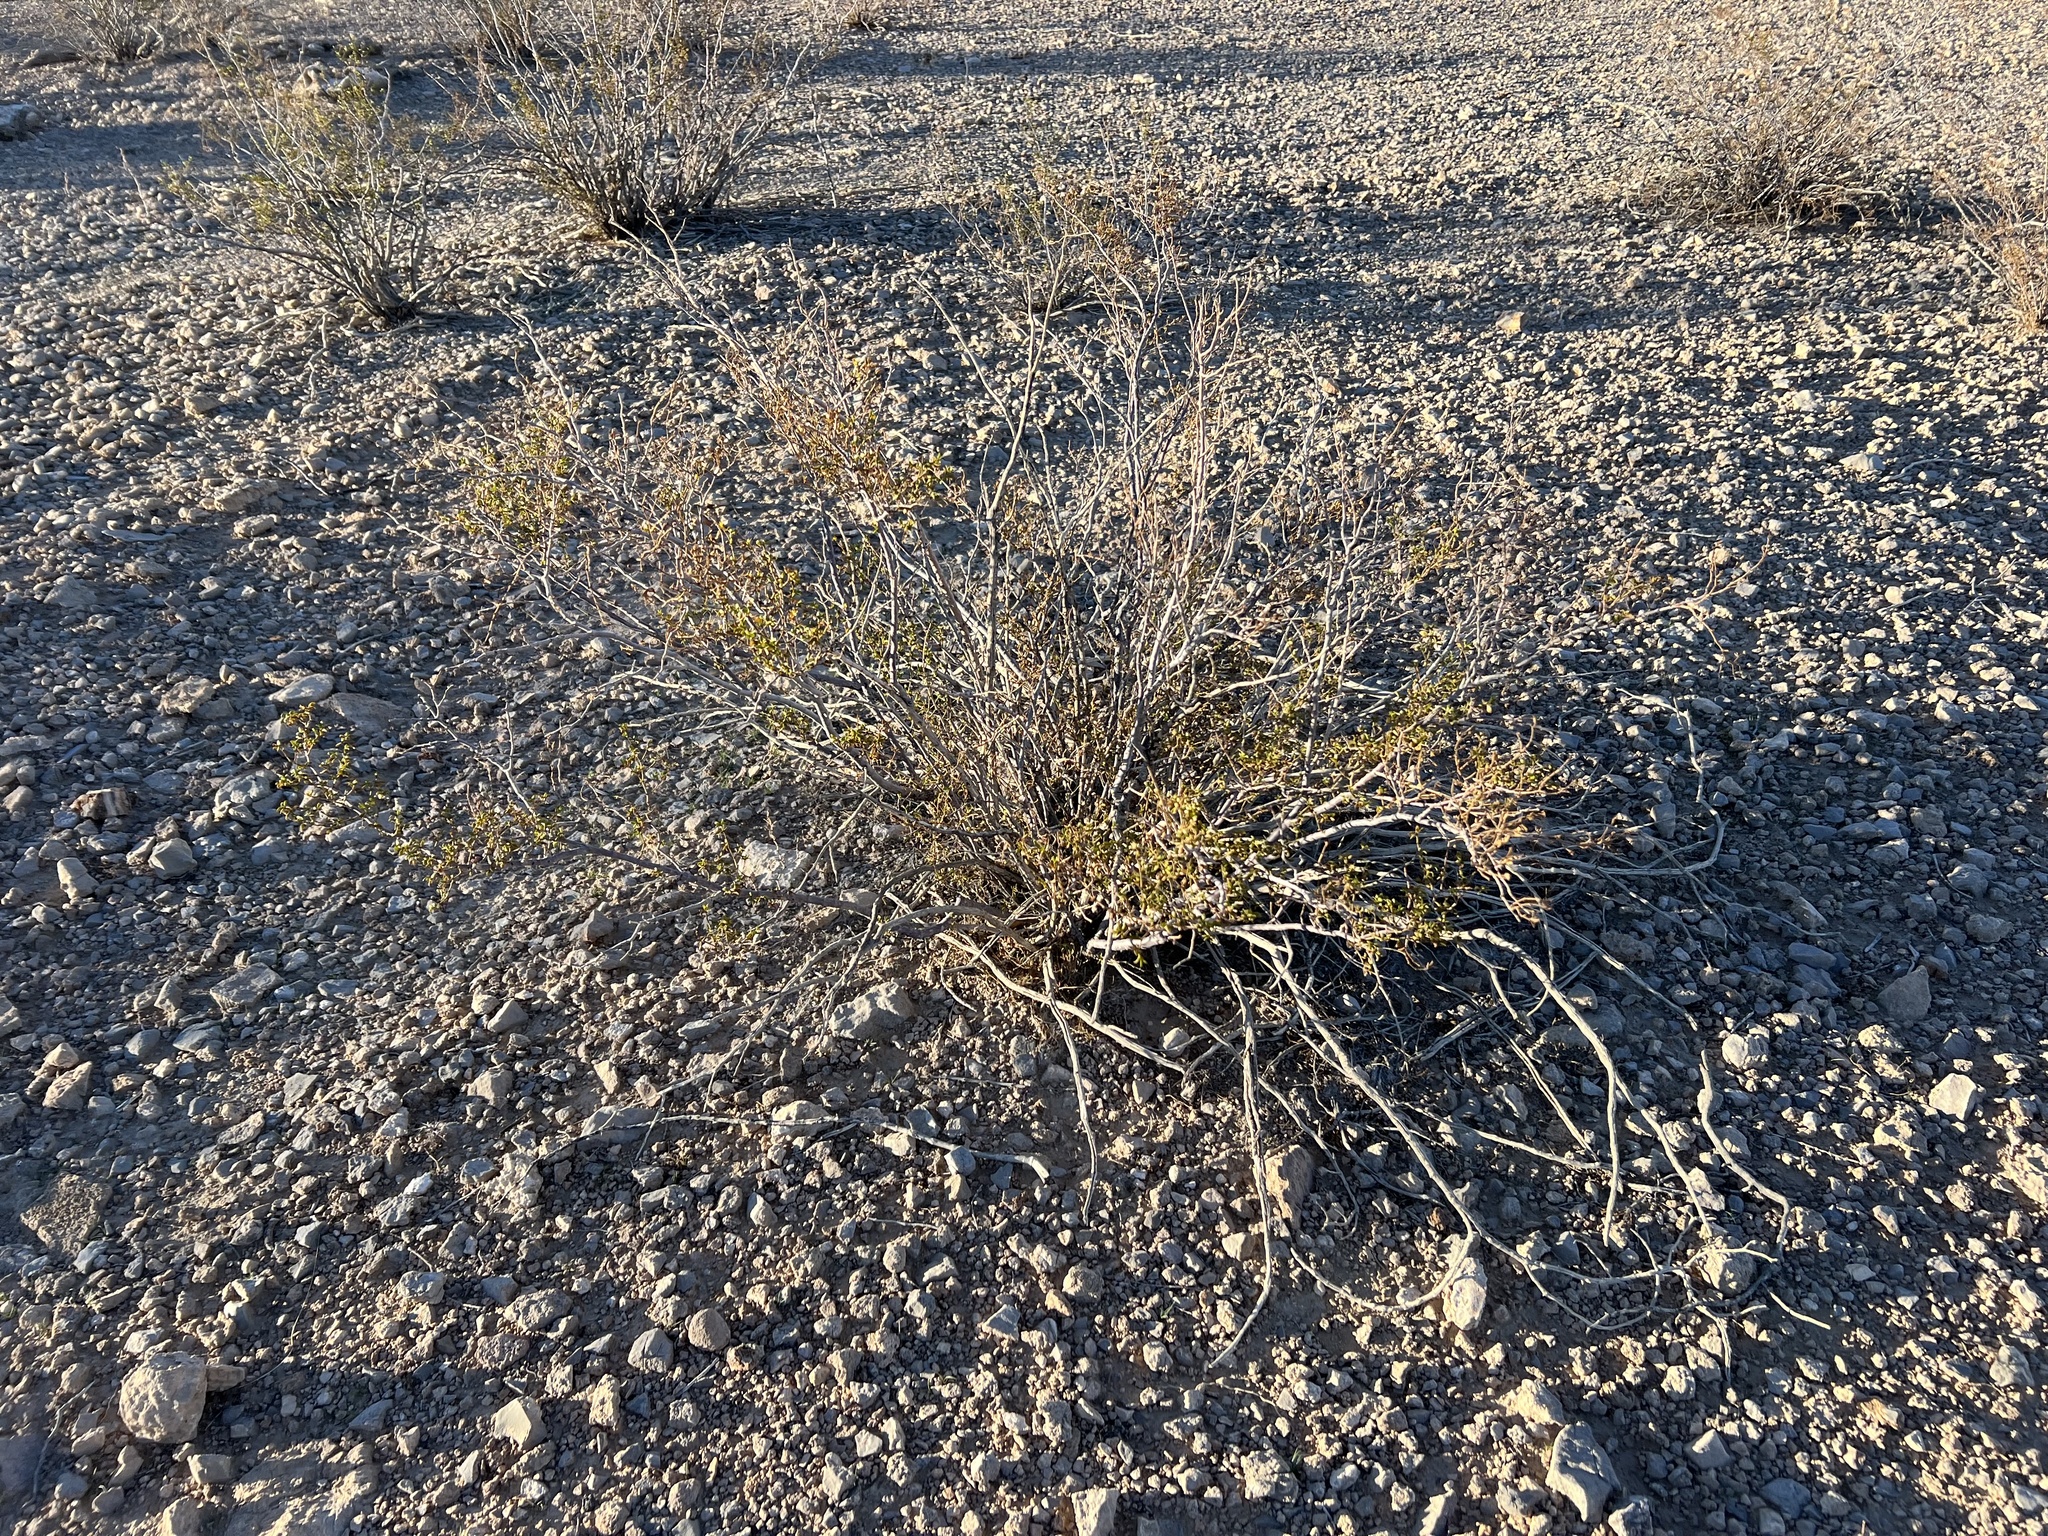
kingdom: Plantae
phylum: Tracheophyta
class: Magnoliopsida
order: Zygophyllales
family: Zygophyllaceae
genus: Larrea
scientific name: Larrea tridentata
